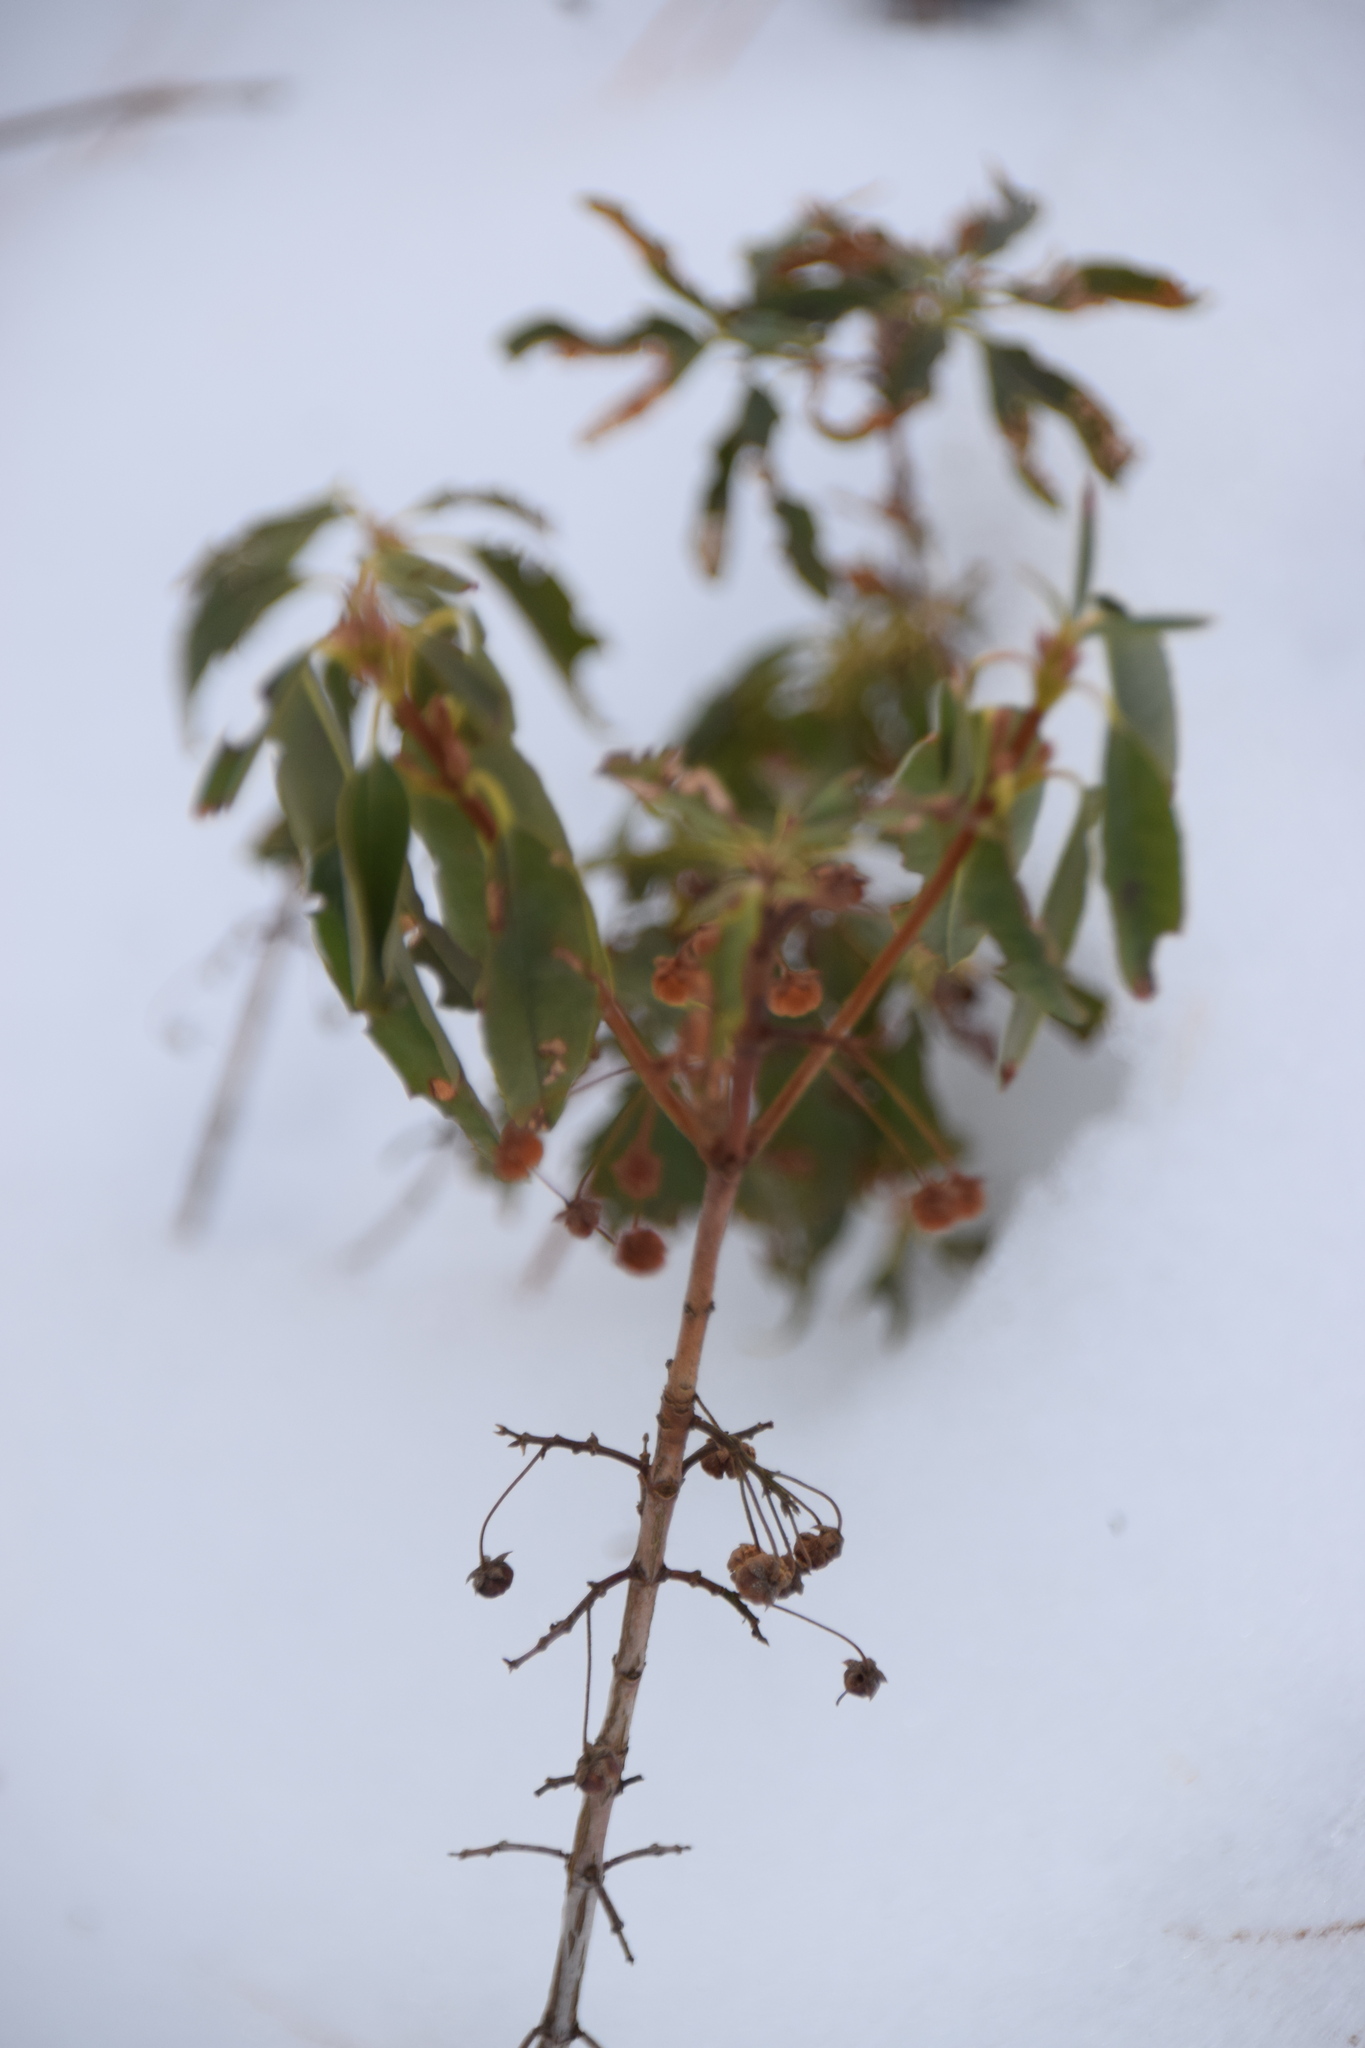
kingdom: Plantae
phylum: Tracheophyta
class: Magnoliopsida
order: Ericales
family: Ericaceae
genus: Kalmia
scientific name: Kalmia angustifolia
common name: Sheep-laurel
